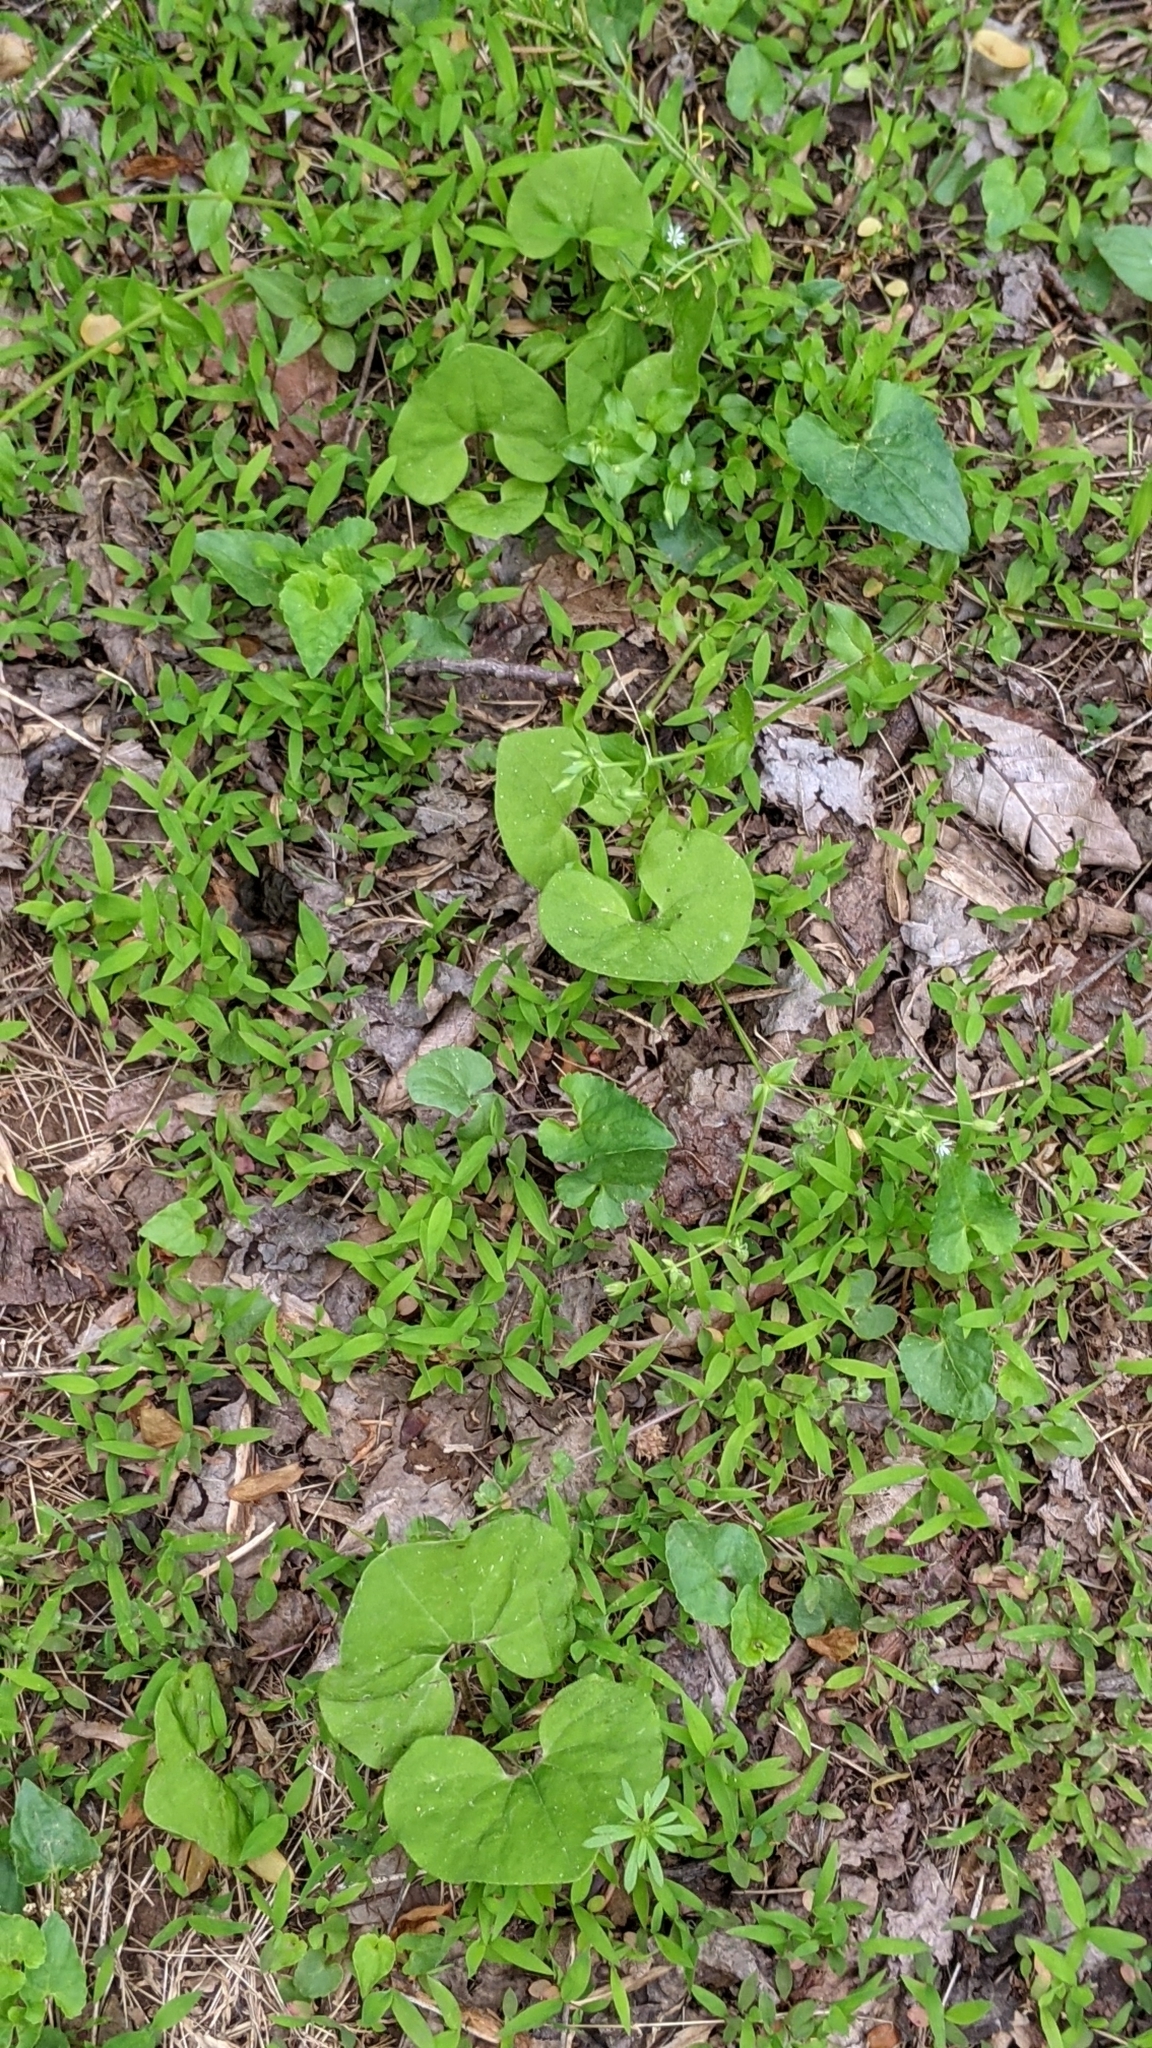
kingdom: Plantae
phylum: Tracheophyta
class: Magnoliopsida
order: Piperales
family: Aristolochiaceae
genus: Asarum
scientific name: Asarum canadense
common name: Wild ginger
